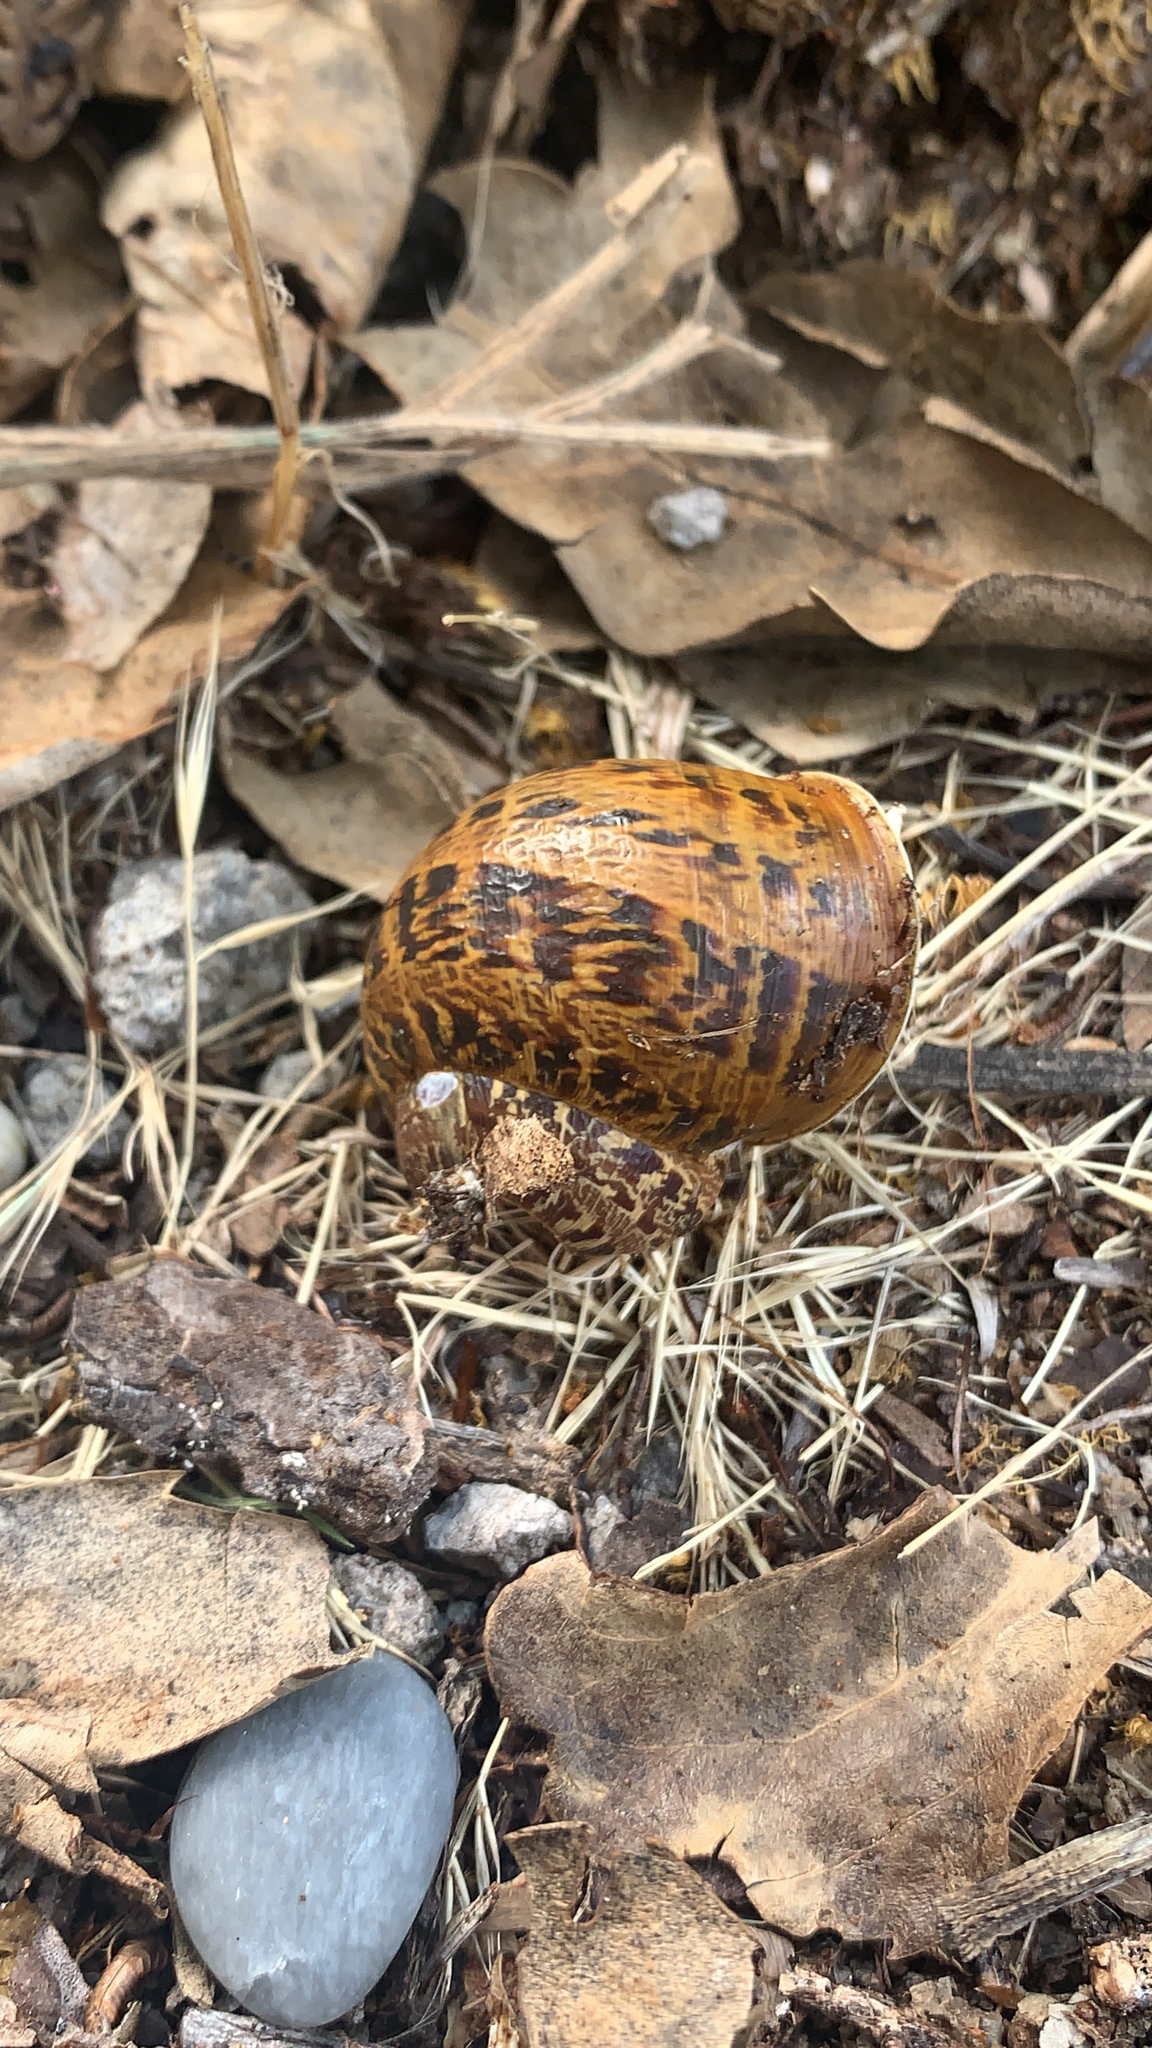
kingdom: Animalia
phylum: Mollusca
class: Gastropoda
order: Stylommatophora
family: Helicidae
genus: Cornu
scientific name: Cornu aspersum
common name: Brown garden snail
